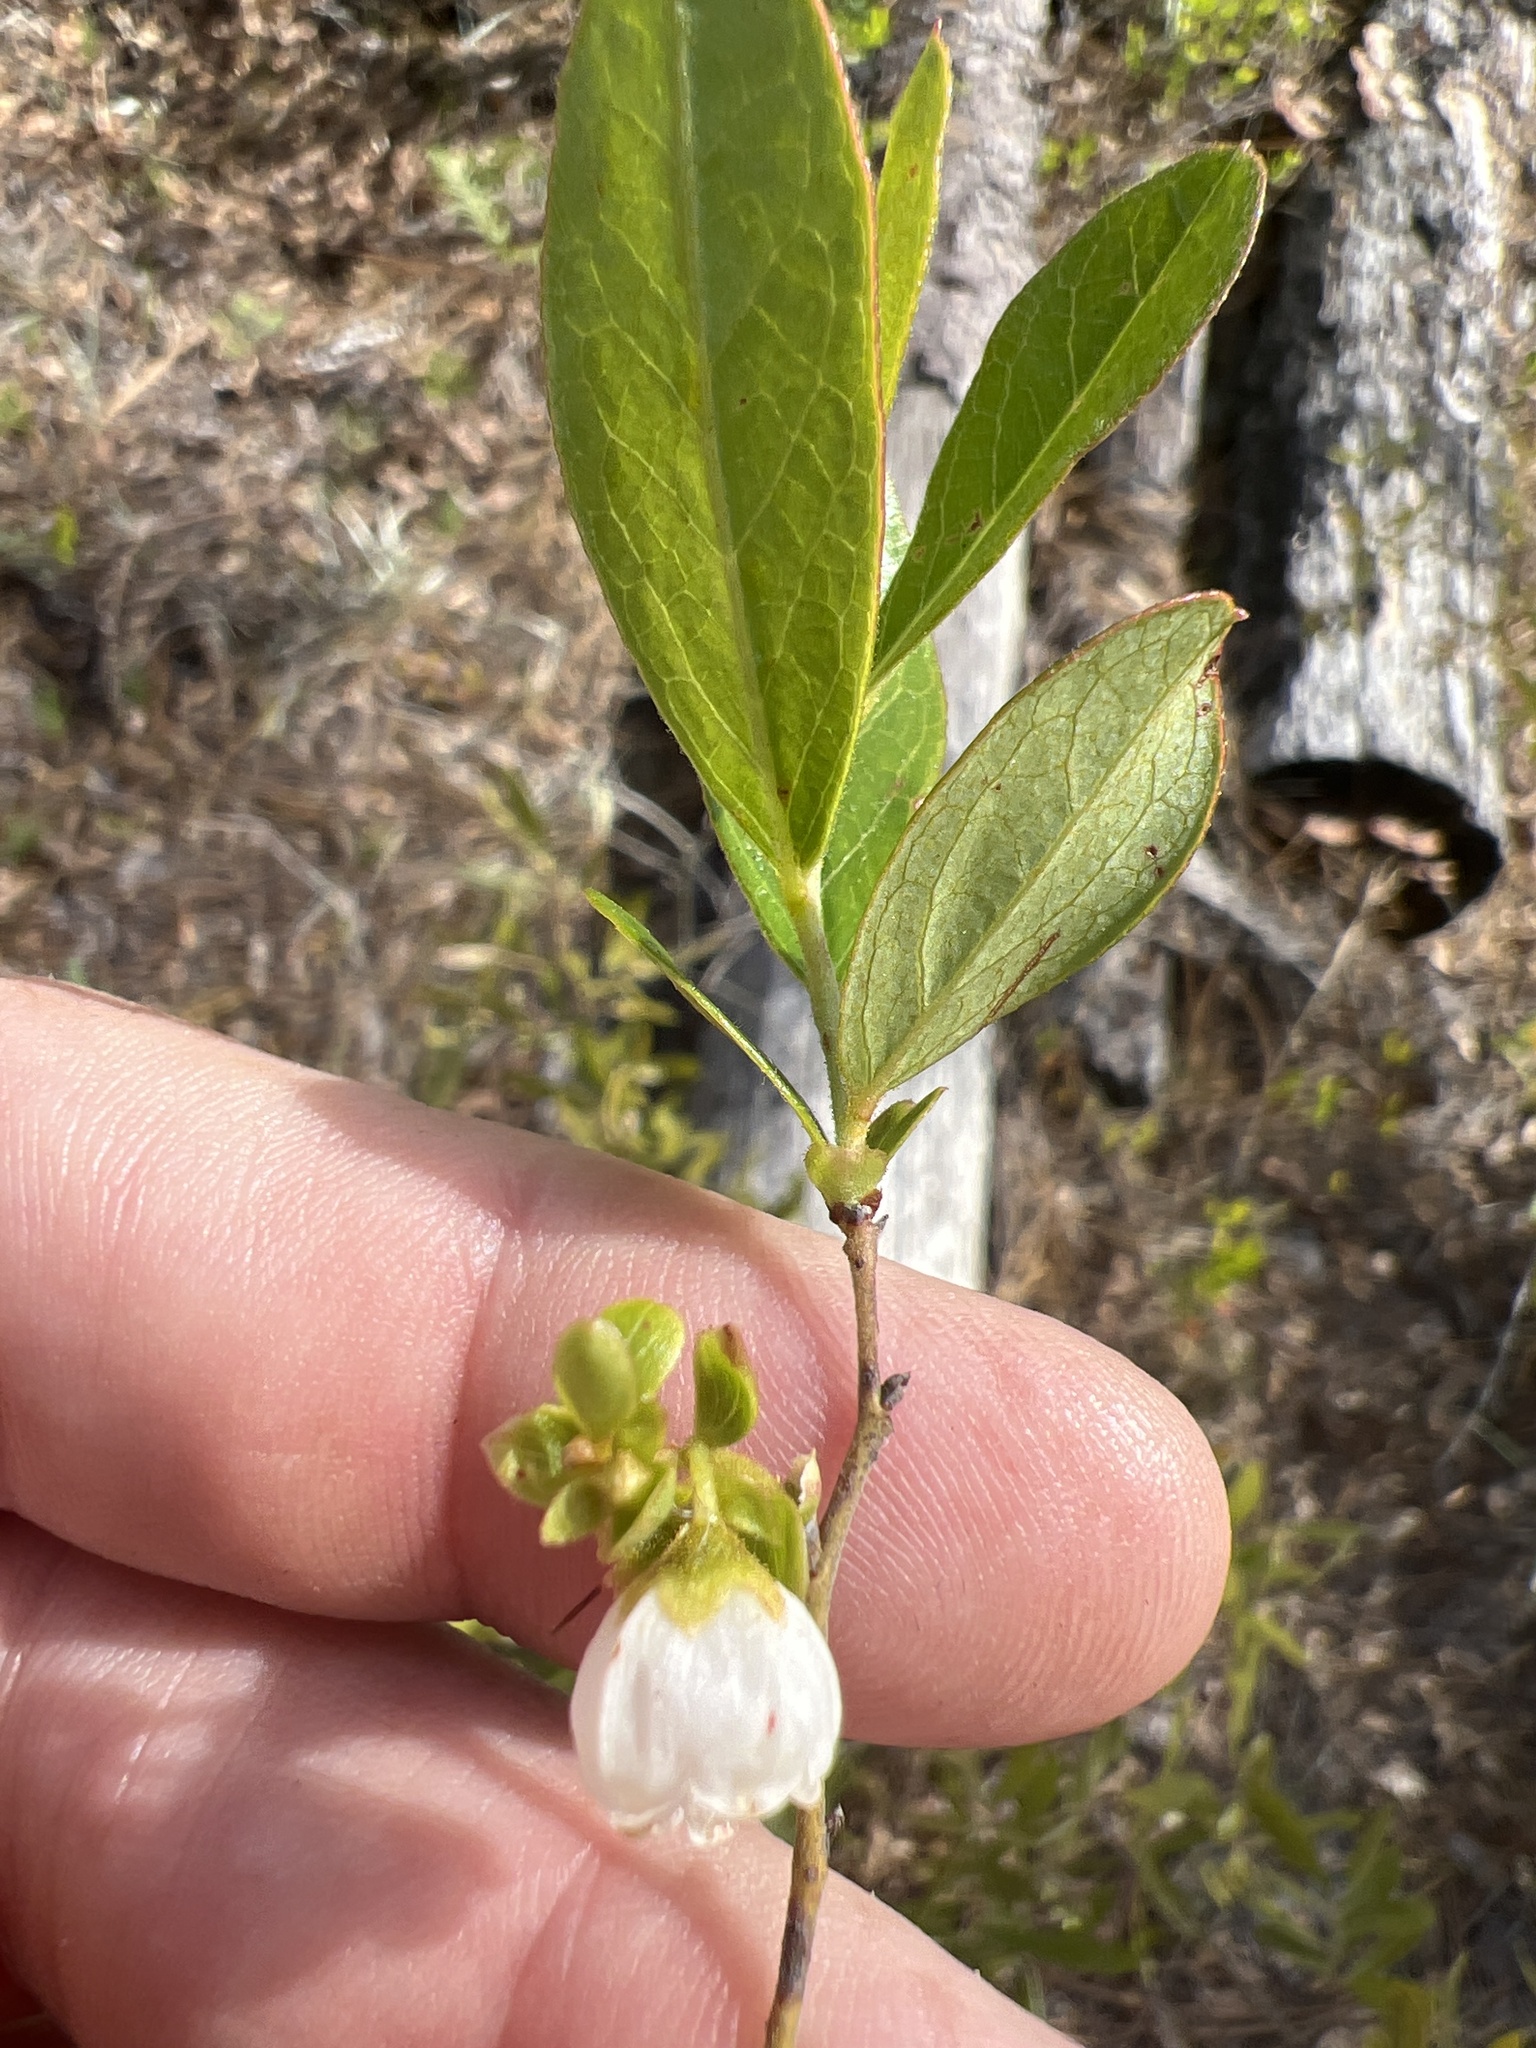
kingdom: Plantae
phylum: Tracheophyta
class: Magnoliopsida
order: Ericales
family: Ericaceae
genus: Gaylussacia
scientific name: Gaylussacia dumosa
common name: Dwarf huckleberry
